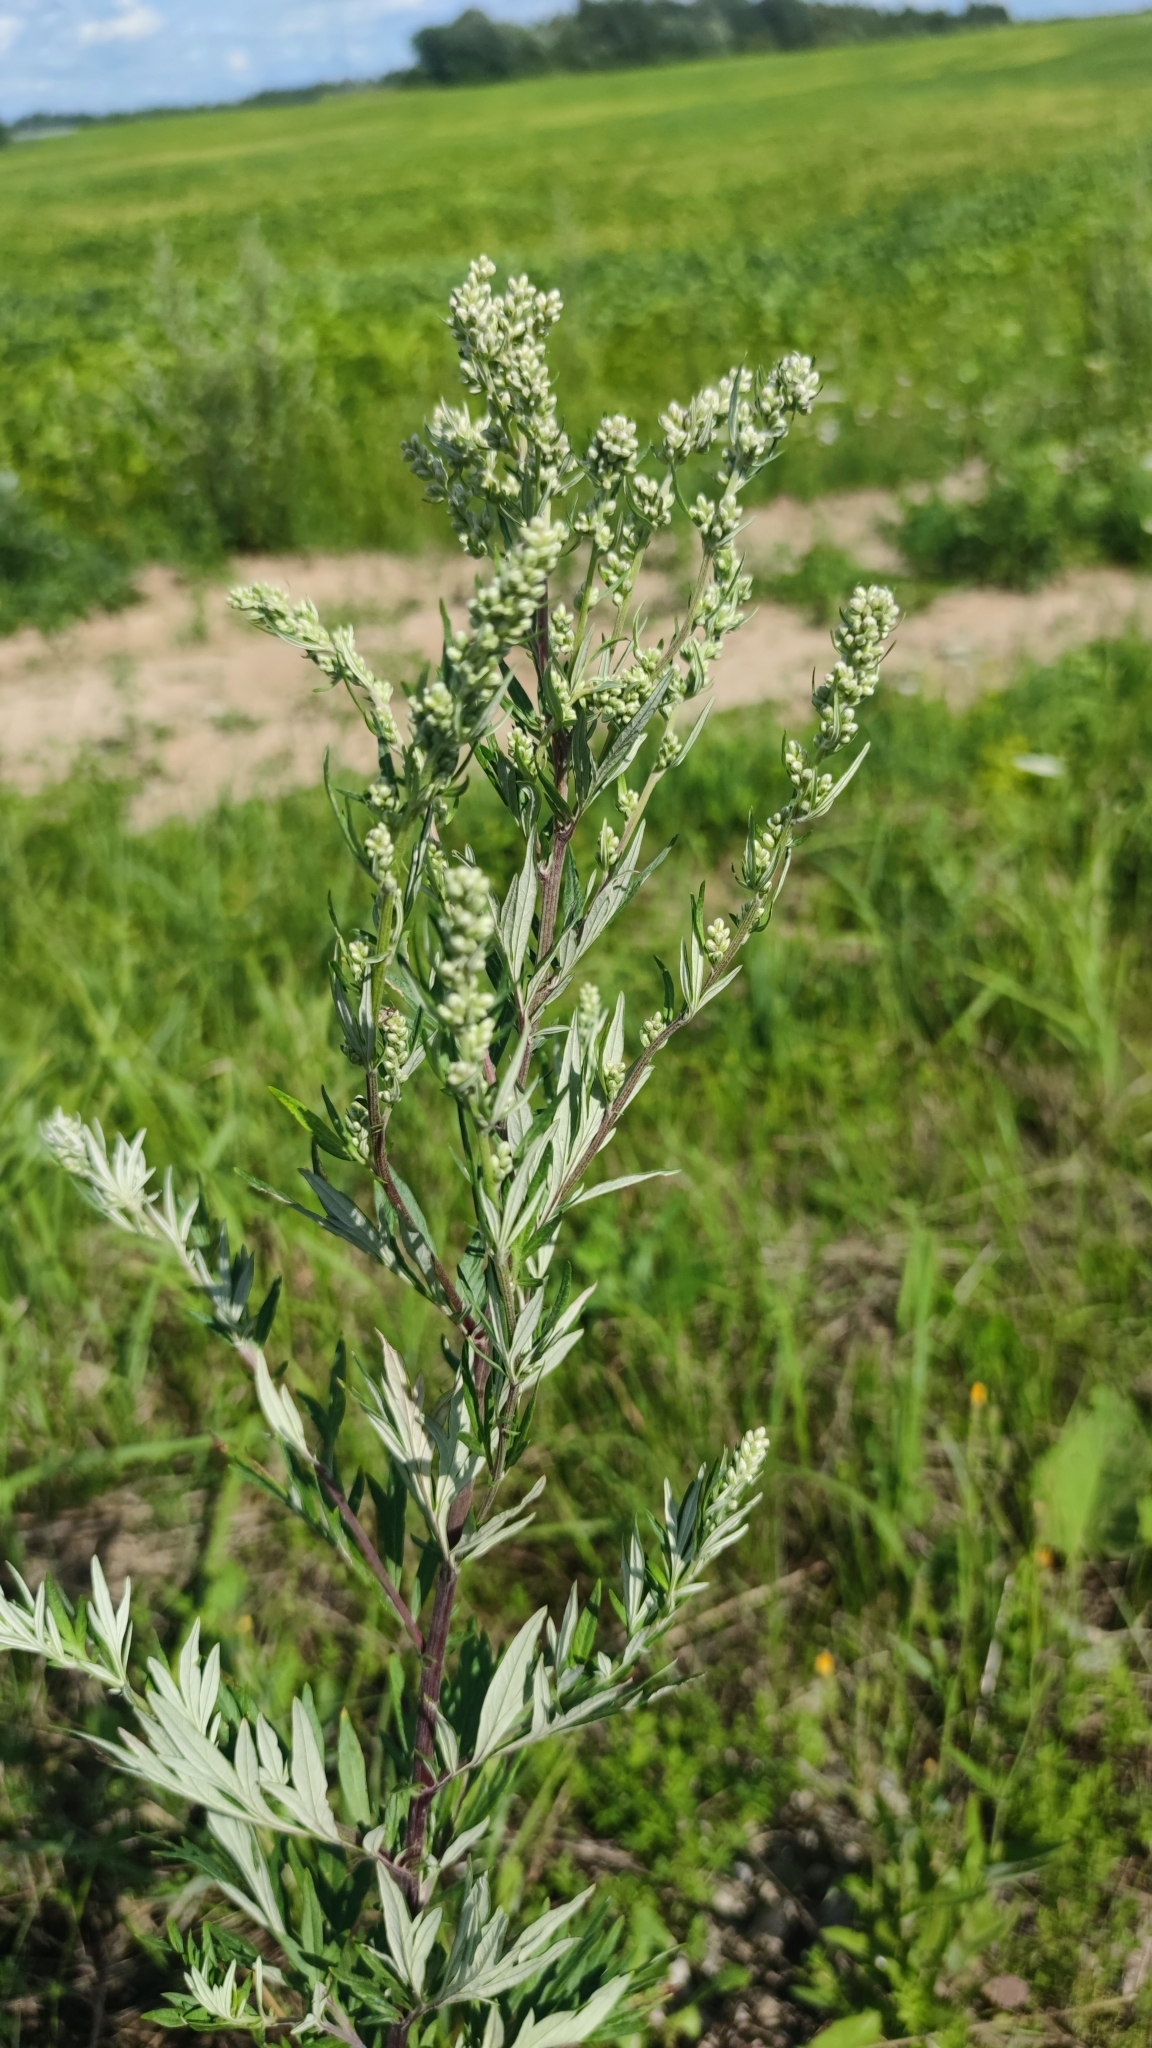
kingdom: Plantae
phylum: Tracheophyta
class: Magnoliopsida
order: Asterales
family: Asteraceae
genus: Artemisia
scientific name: Artemisia vulgaris
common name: Mugwort
